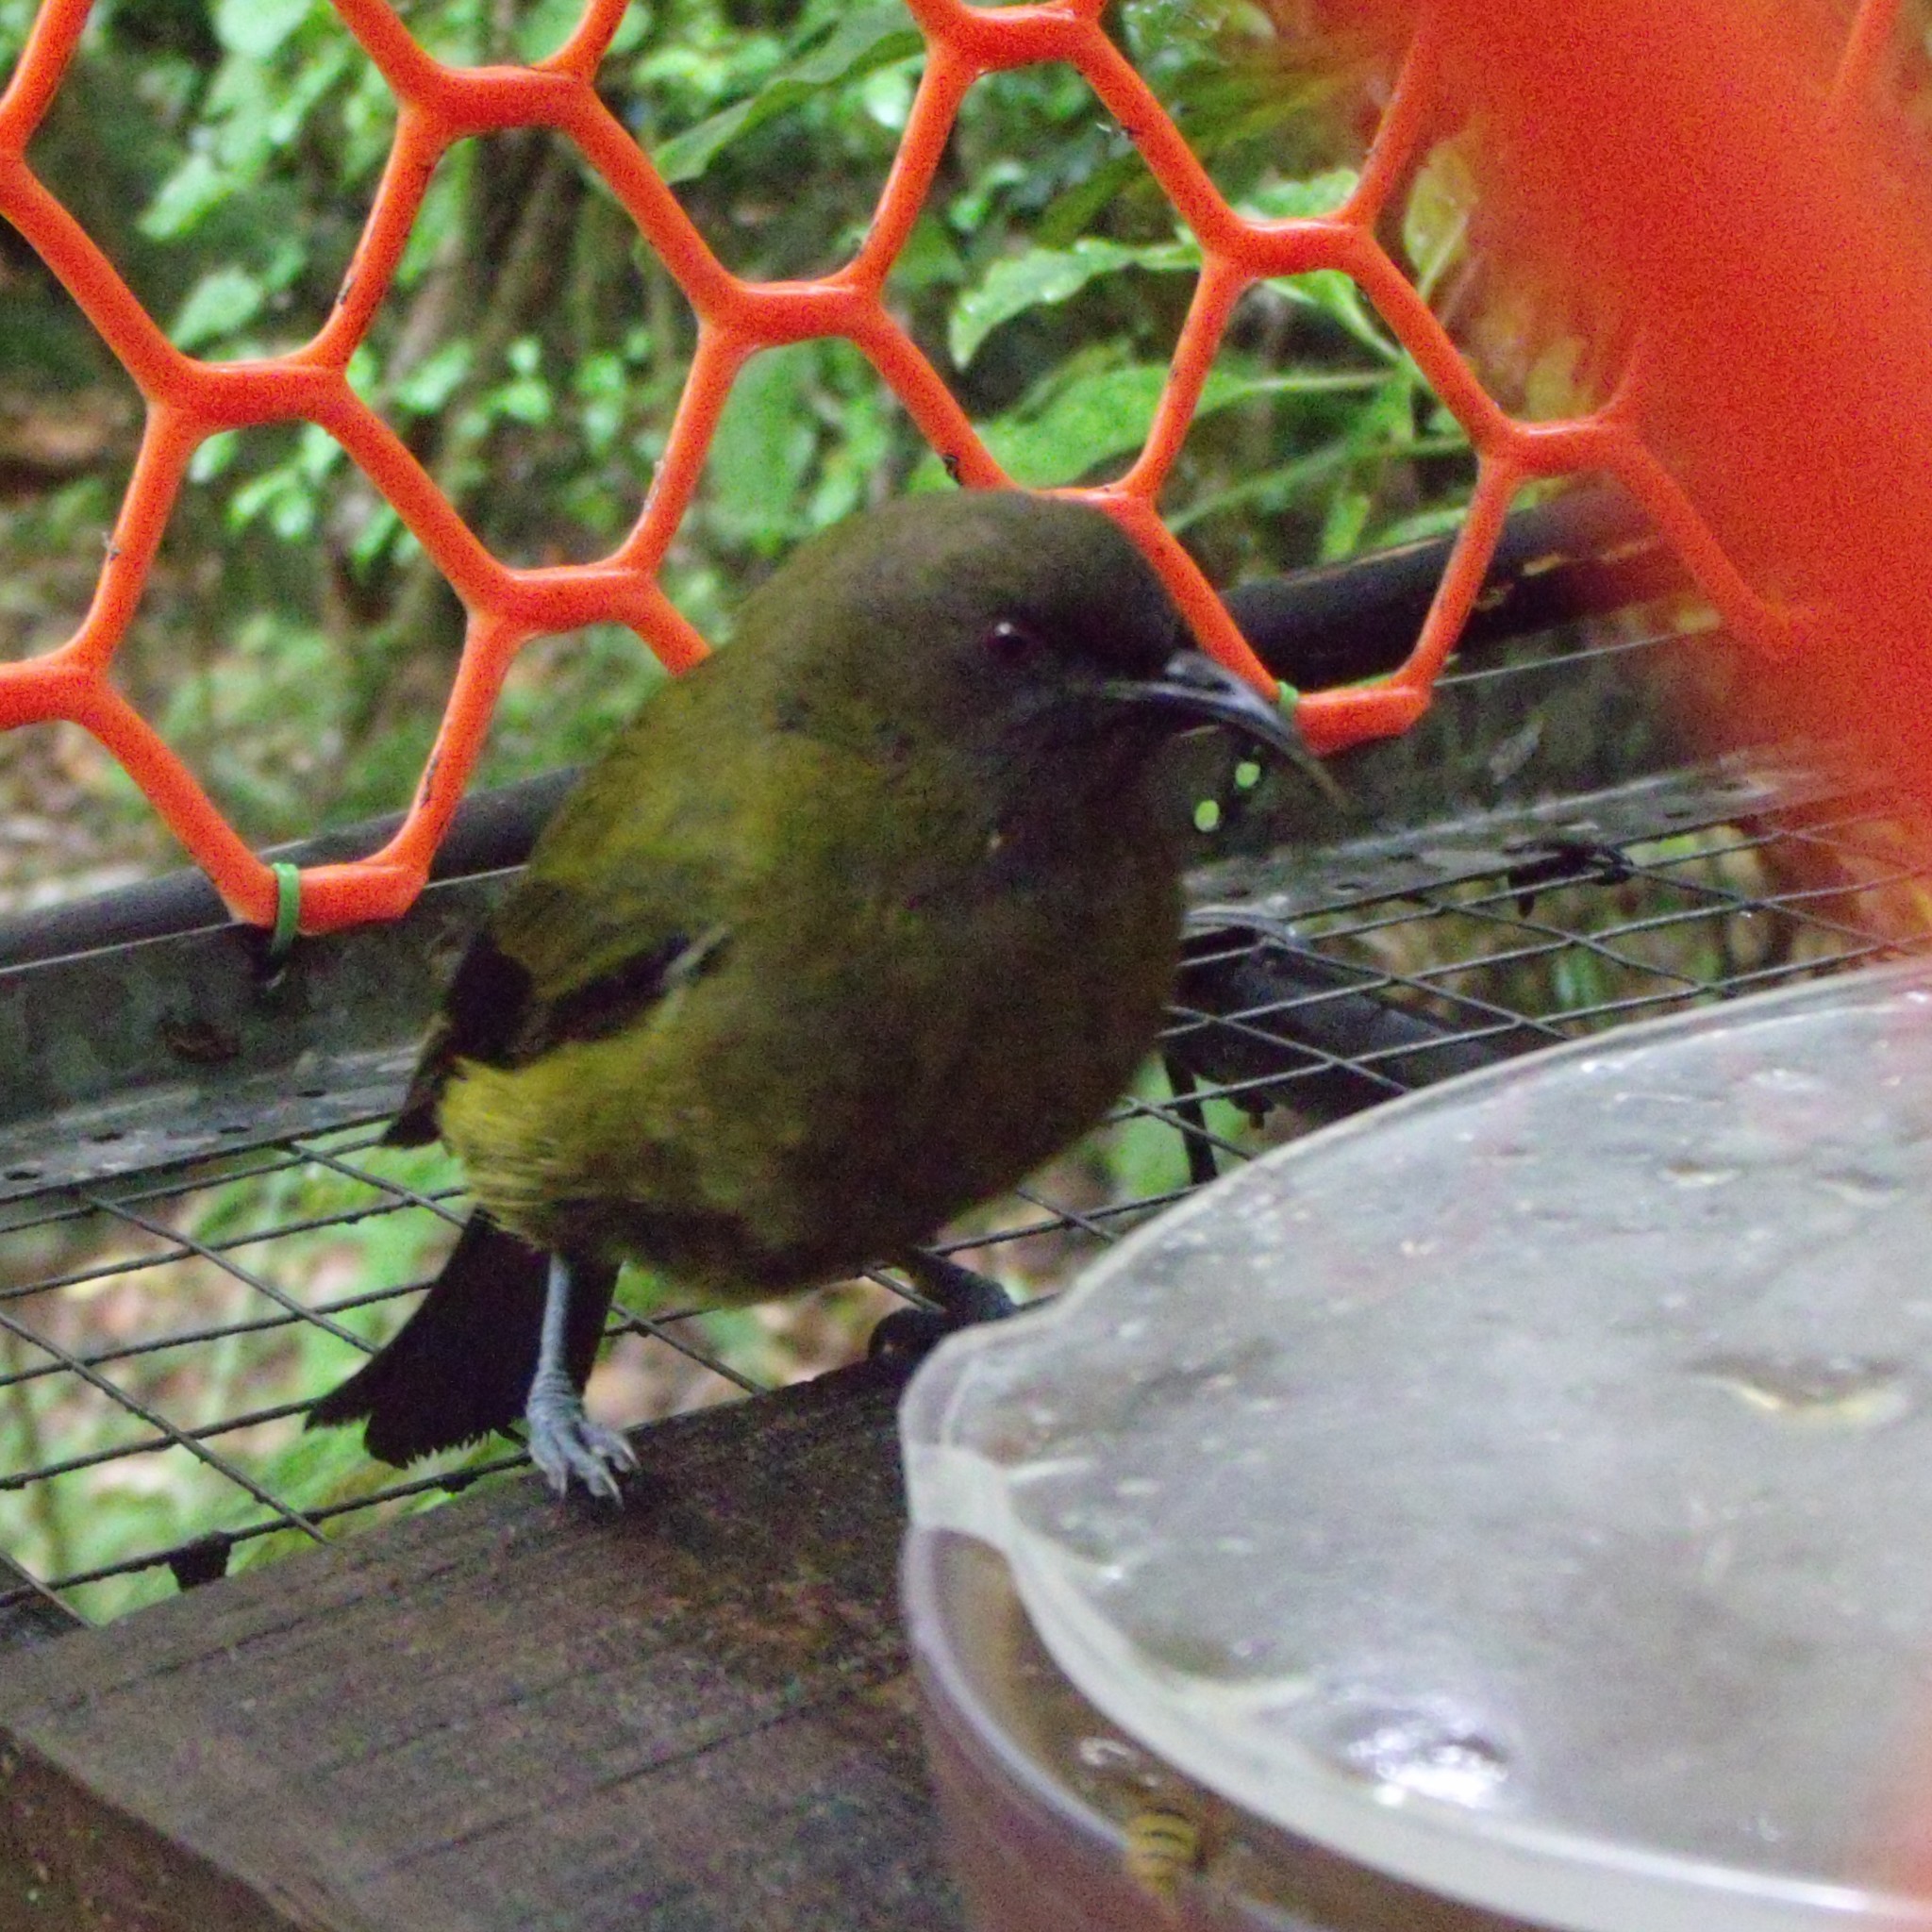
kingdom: Animalia
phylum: Chordata
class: Aves
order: Passeriformes
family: Meliphagidae
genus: Anthornis
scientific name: Anthornis melanura
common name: New zealand bellbird
